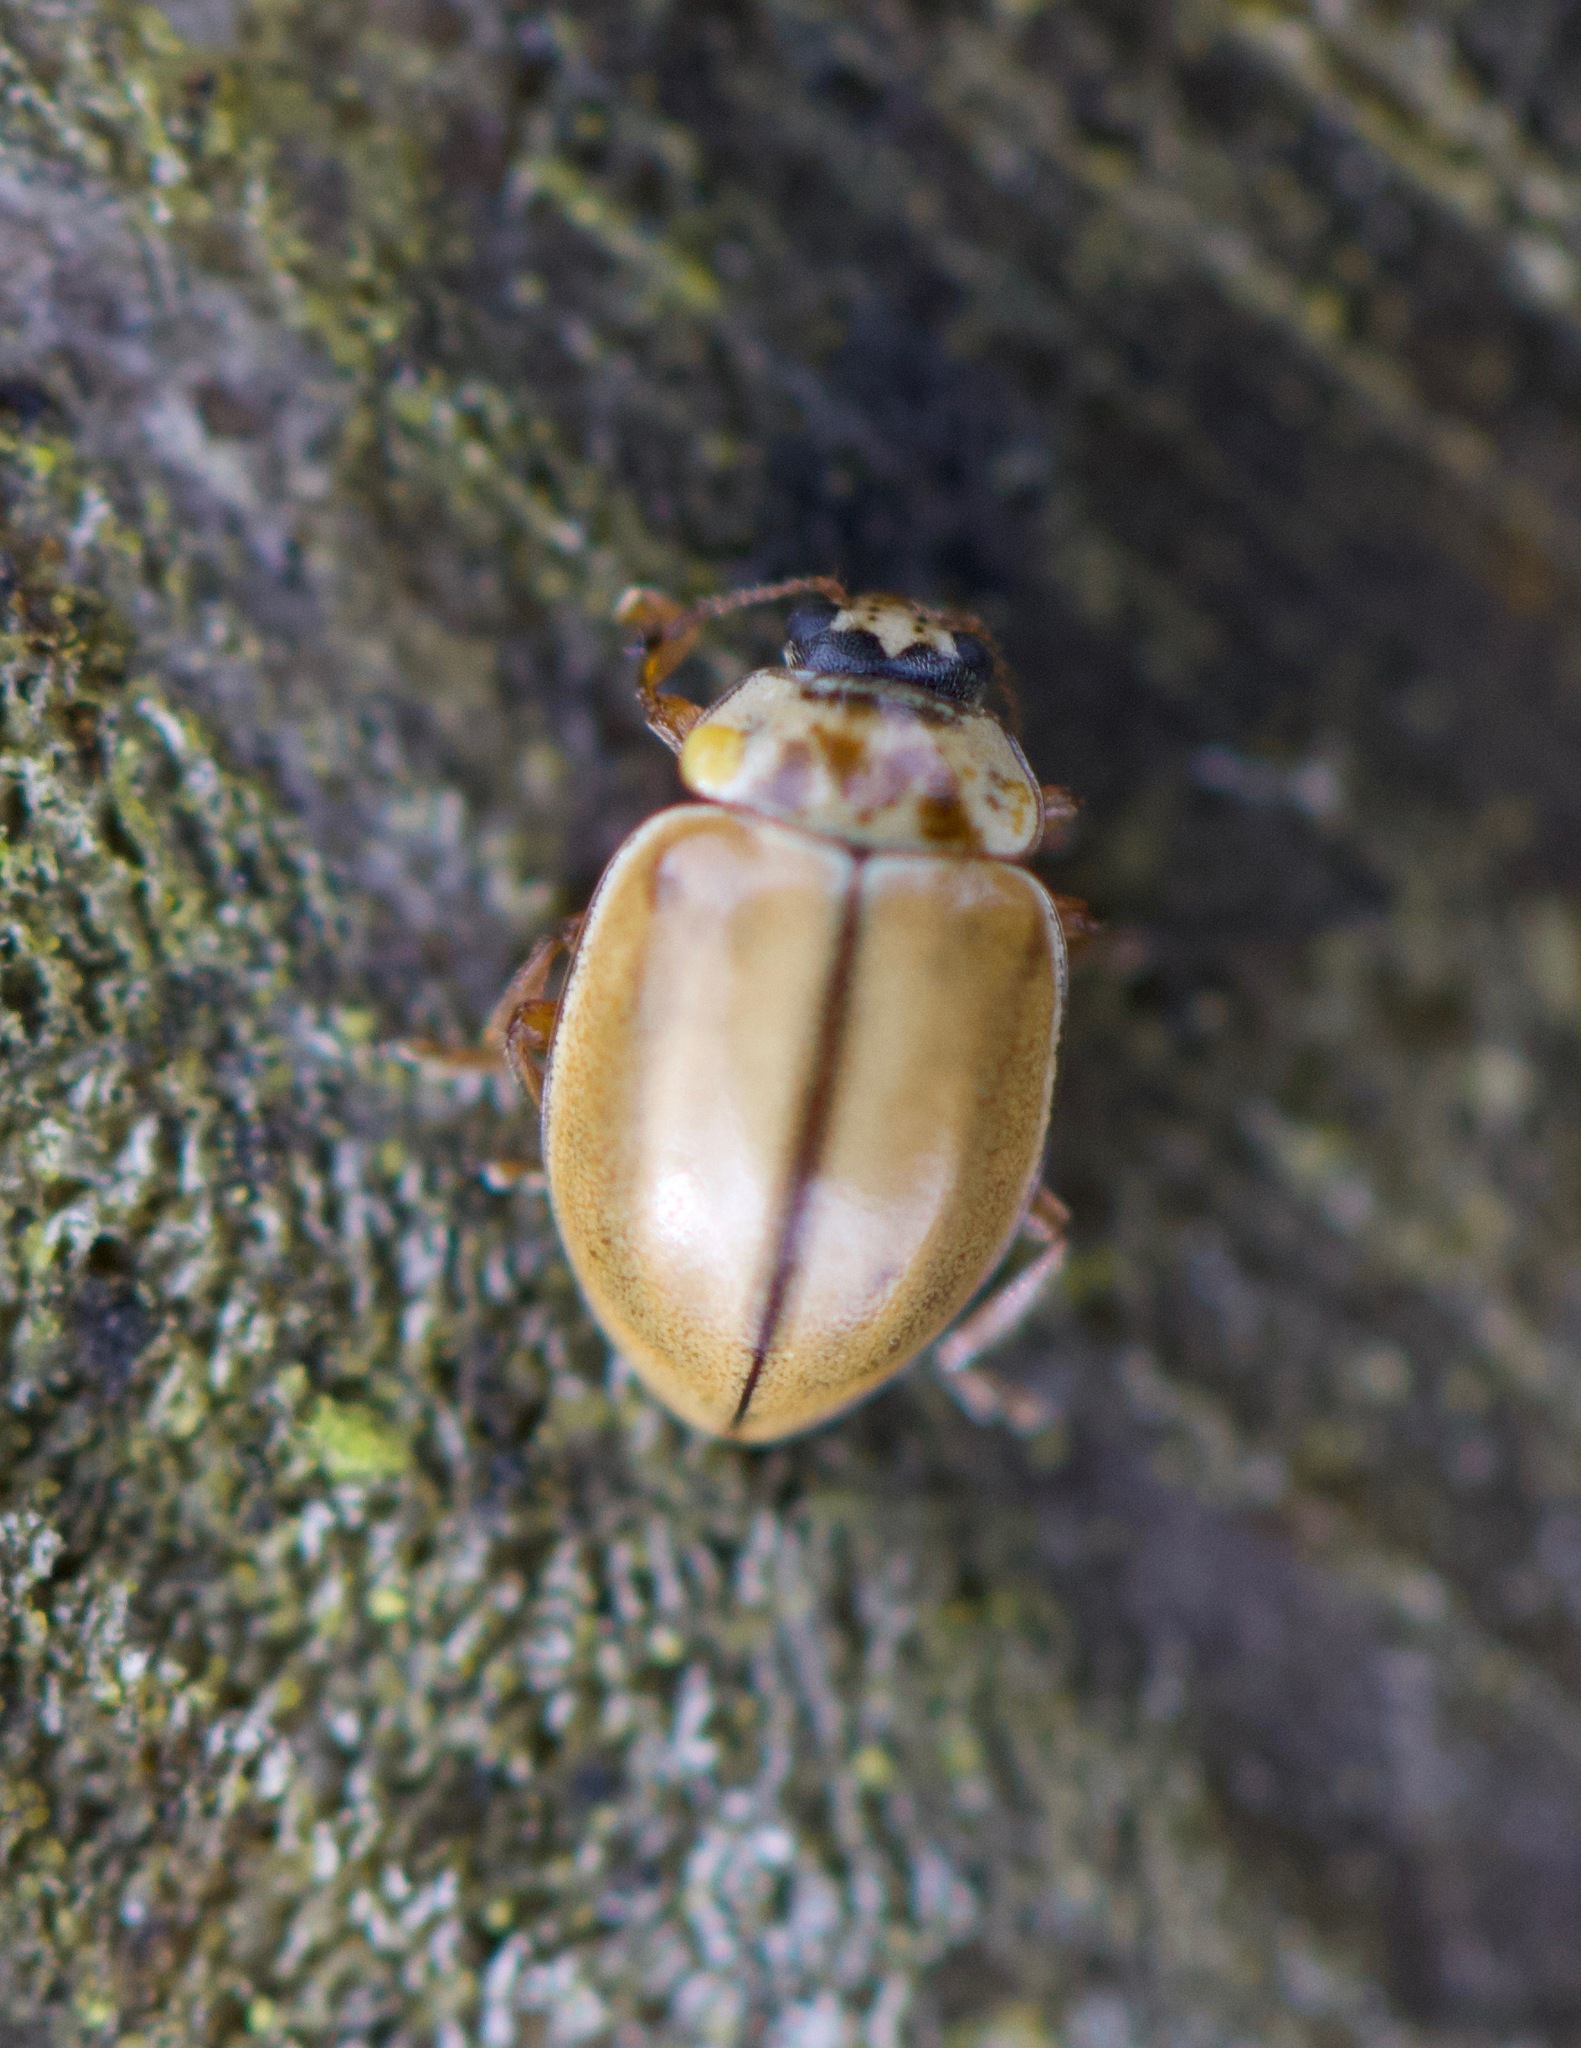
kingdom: Animalia
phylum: Arthropoda
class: Insecta
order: Coleoptera
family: Coccinellidae
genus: Aphidecta
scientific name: Aphidecta obliterata
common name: Larch ladybird
